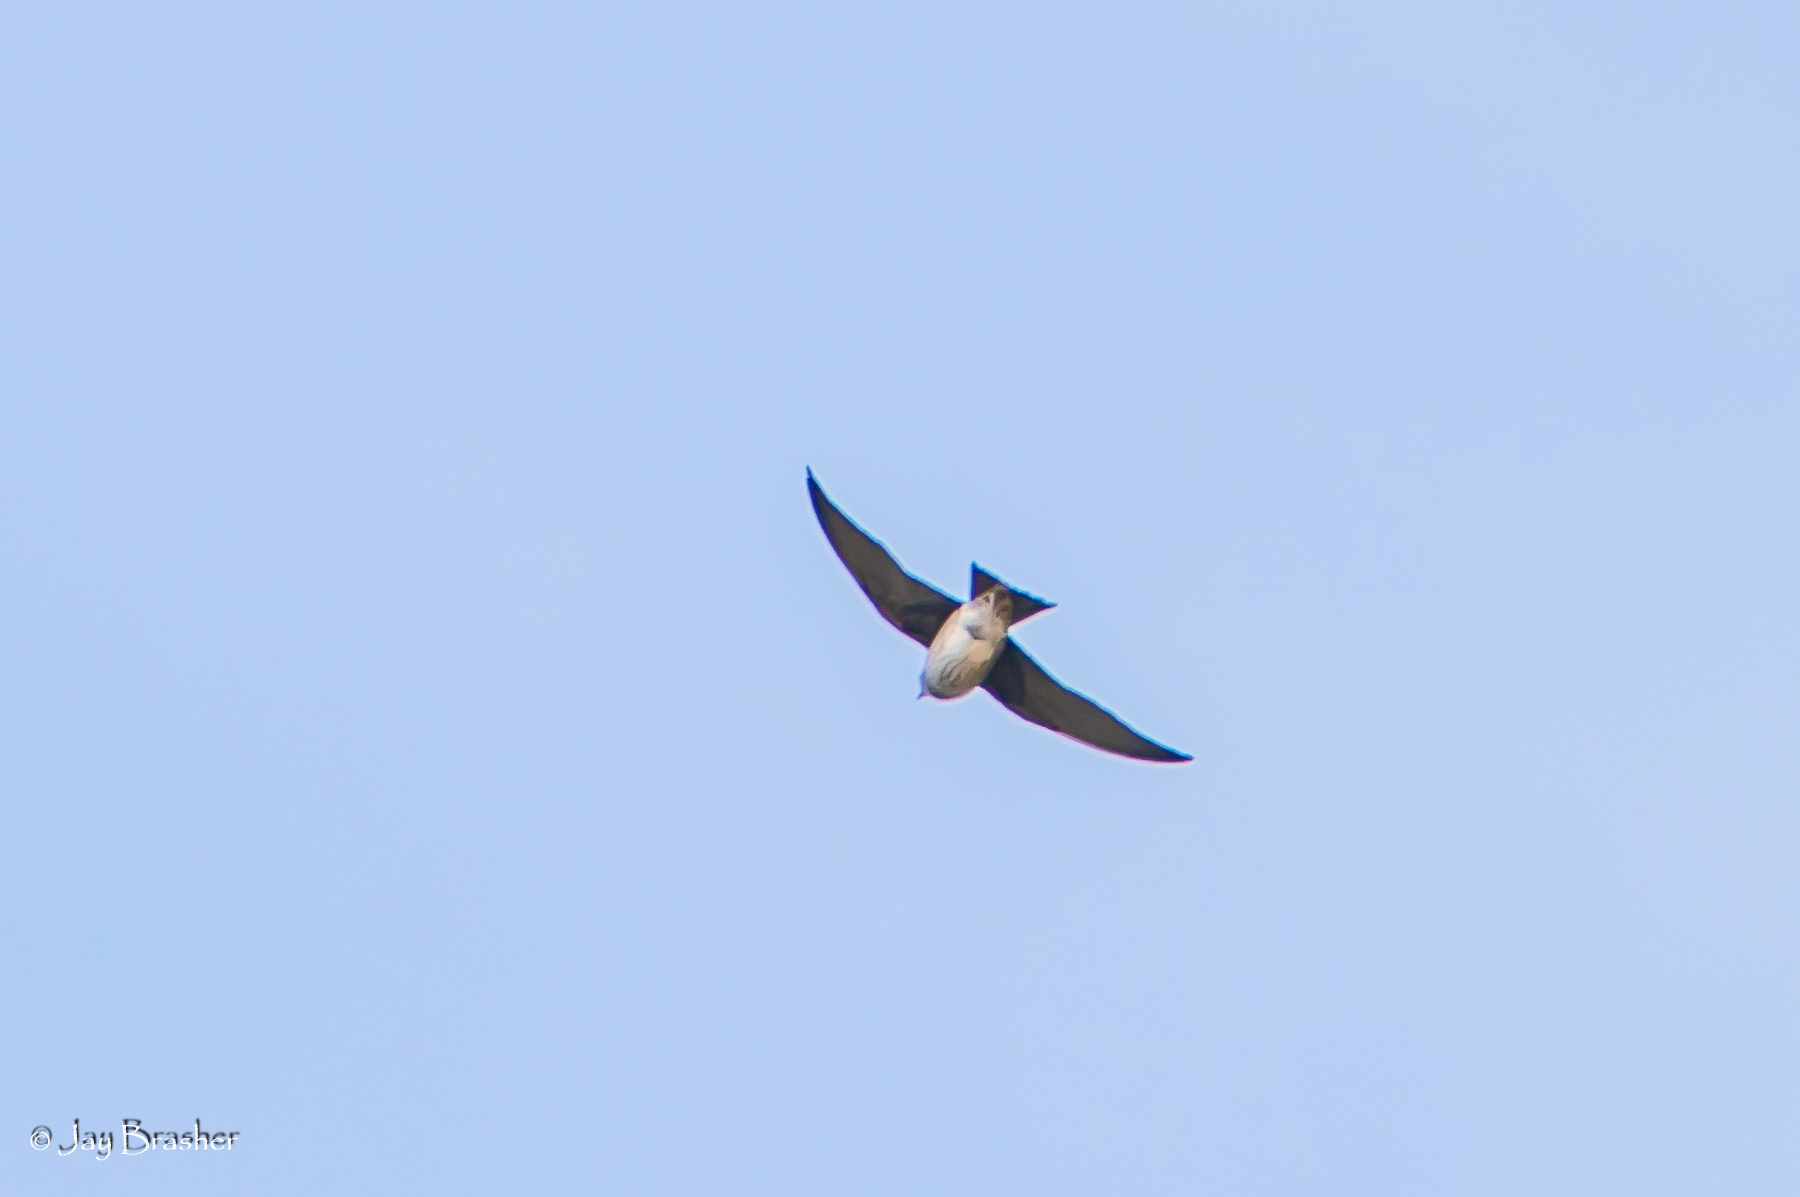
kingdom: Animalia
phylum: Chordata
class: Aves
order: Passeriformes
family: Hirundinidae
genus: Stelgidopteryx
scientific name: Stelgidopteryx serripennis
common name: Northern rough-winged swallow
